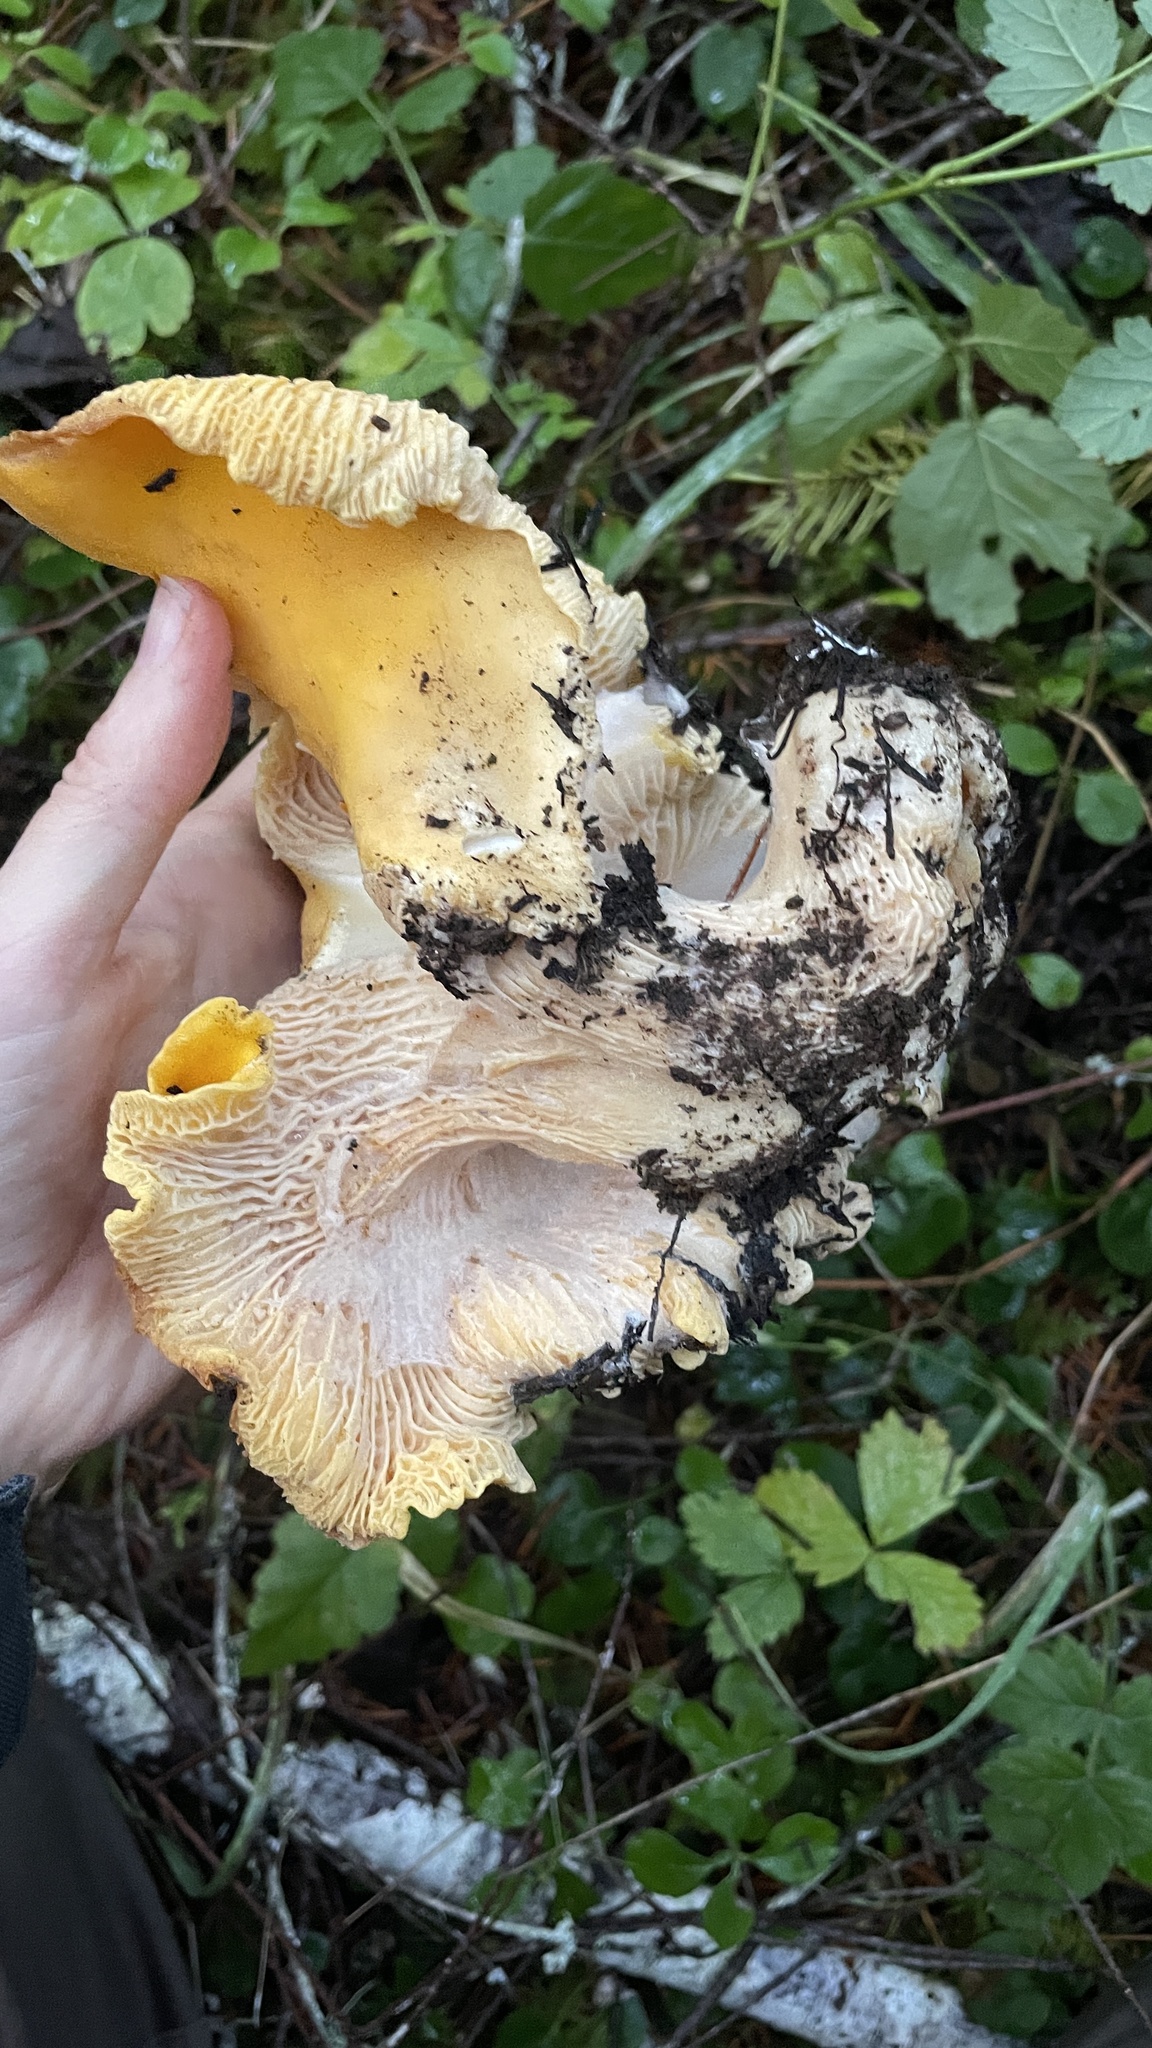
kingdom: Fungi
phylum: Basidiomycota
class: Agaricomycetes
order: Cantharellales
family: Hydnaceae
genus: Cantharellus
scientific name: Cantharellus cascadensis
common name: Cascade chanterelle
